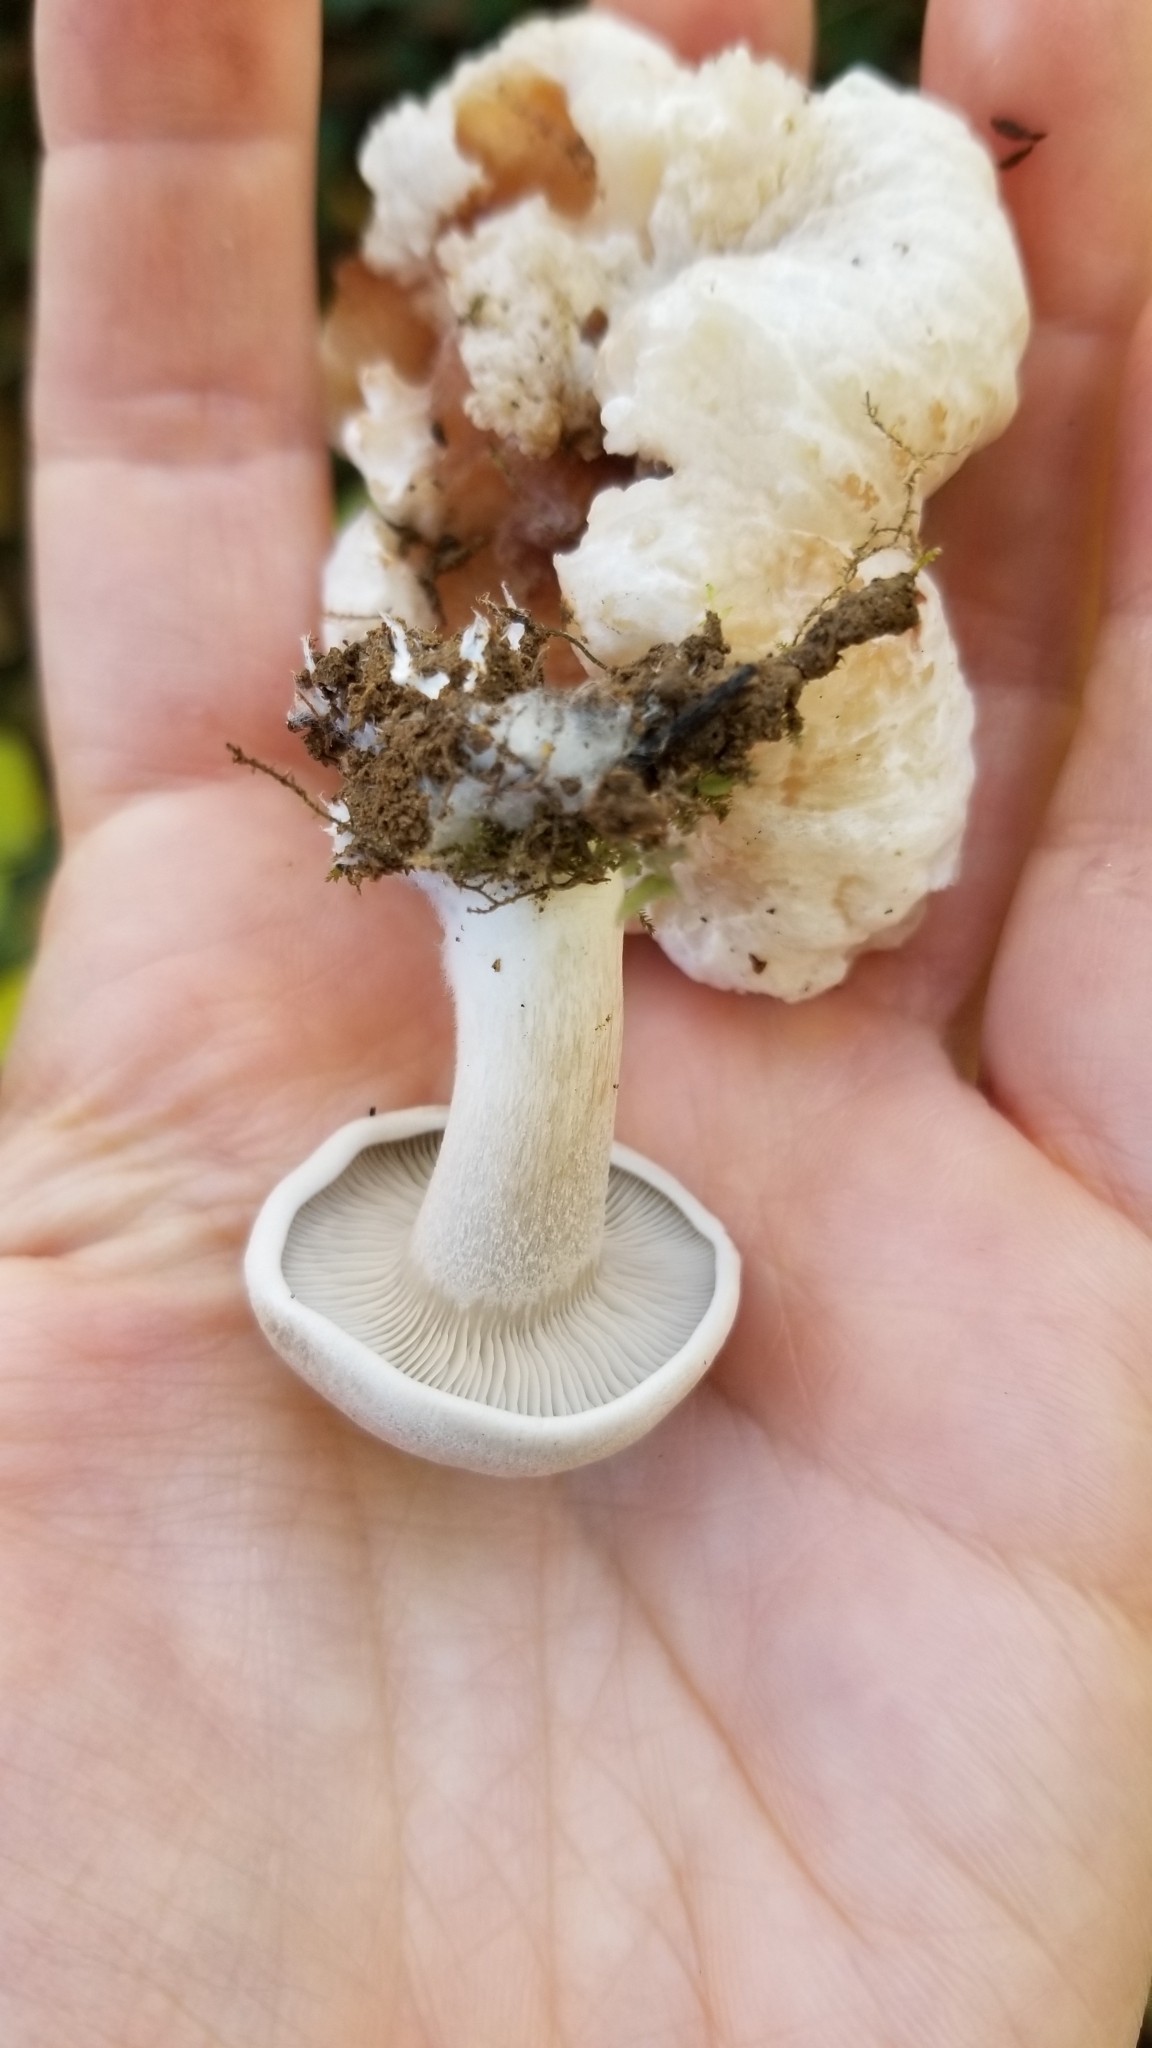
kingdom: Fungi
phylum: Basidiomycota
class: Agaricomycetes
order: Agaricales
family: Entolomataceae
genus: Entoloma
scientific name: Entoloma abortivum
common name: Aborted entoloma
